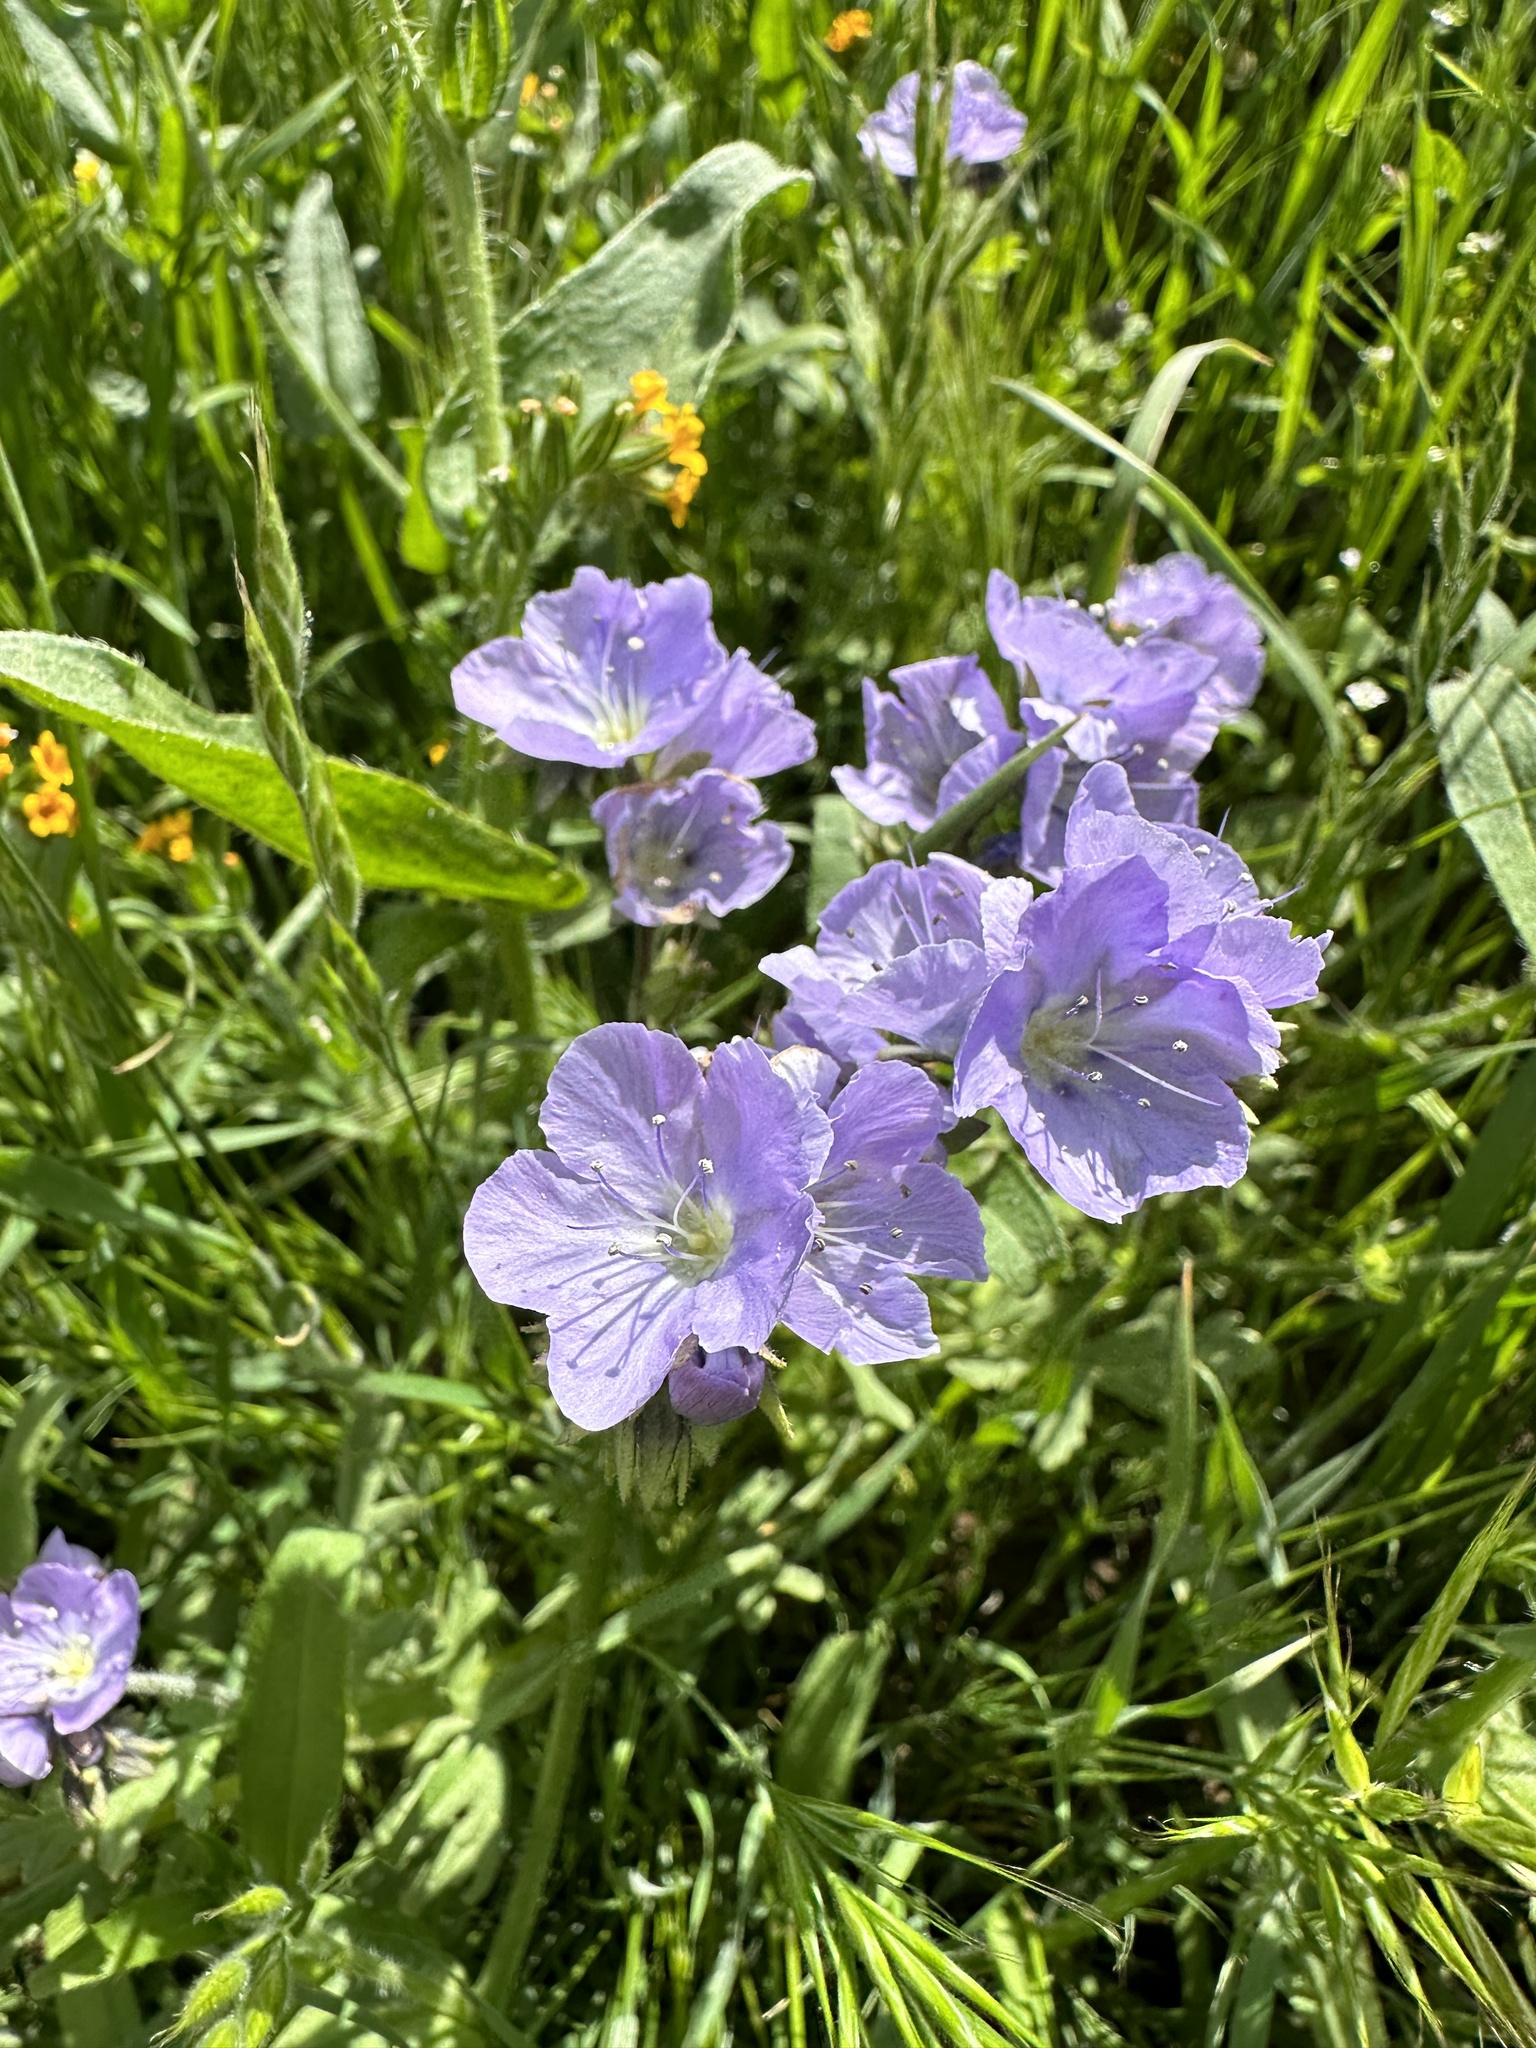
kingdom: Plantae
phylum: Tracheophyta
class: Magnoliopsida
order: Boraginales
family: Hydrophyllaceae
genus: Phacelia
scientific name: Phacelia ciliata
